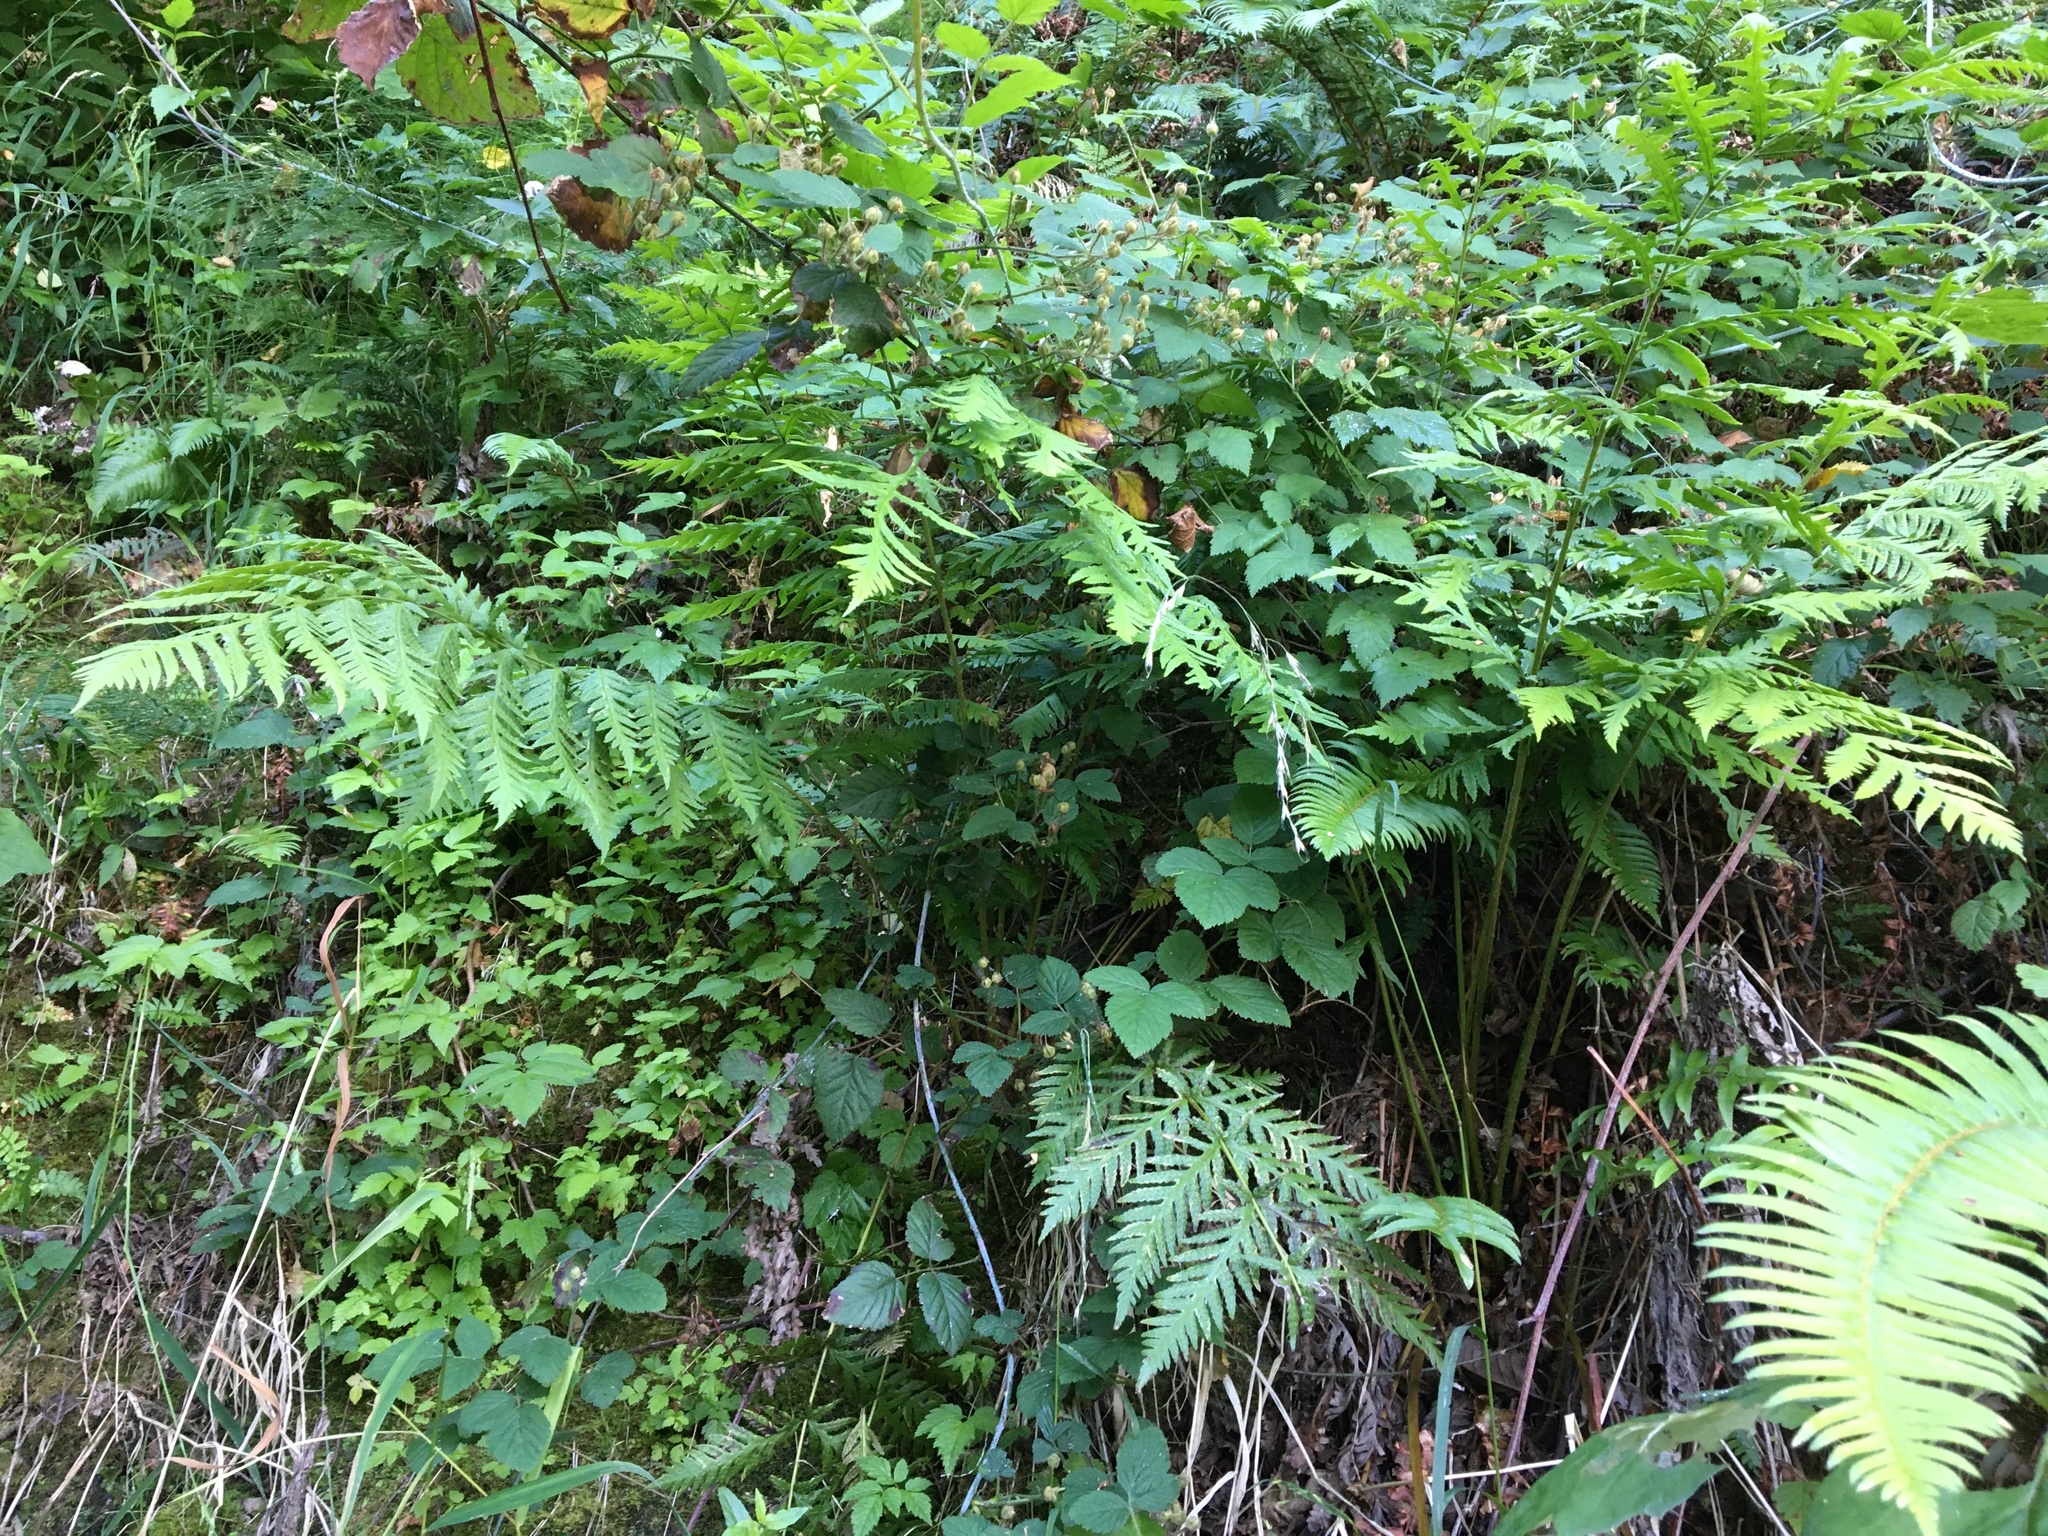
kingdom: Plantae
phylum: Tracheophyta
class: Polypodiopsida
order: Polypodiales
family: Blechnaceae
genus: Woodwardia
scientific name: Woodwardia fimbriata
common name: Giant chain fern
